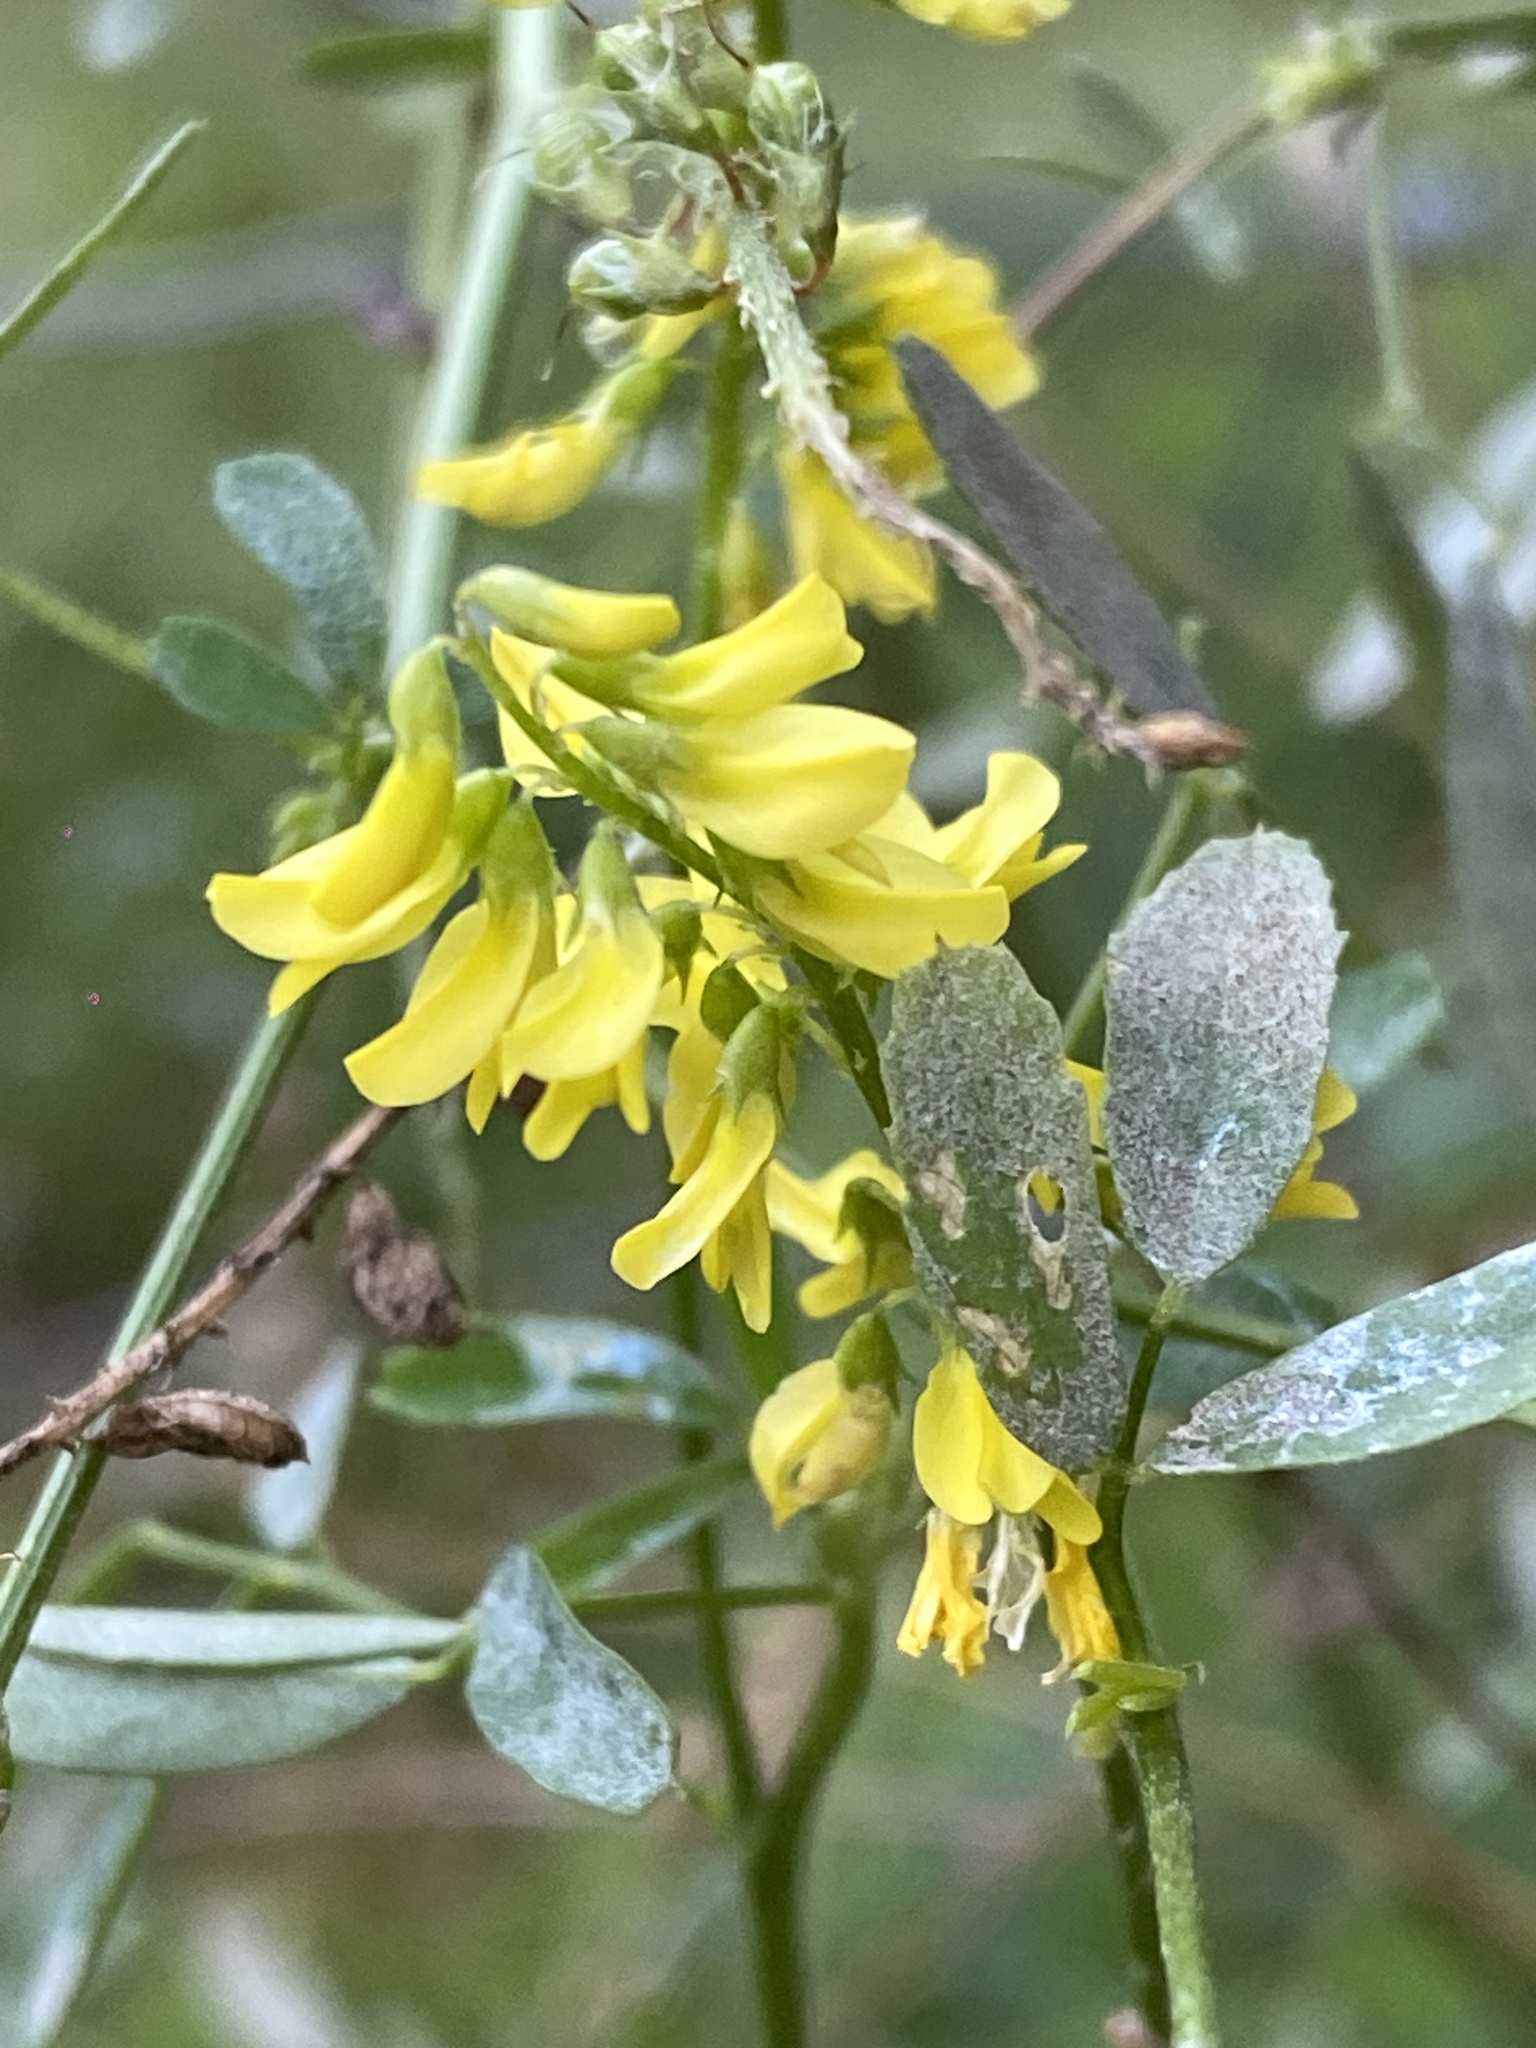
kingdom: Plantae
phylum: Tracheophyta
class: Magnoliopsida
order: Fabales
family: Fabaceae
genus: Melilotus
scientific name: Melilotus officinalis
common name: Sweetclover
